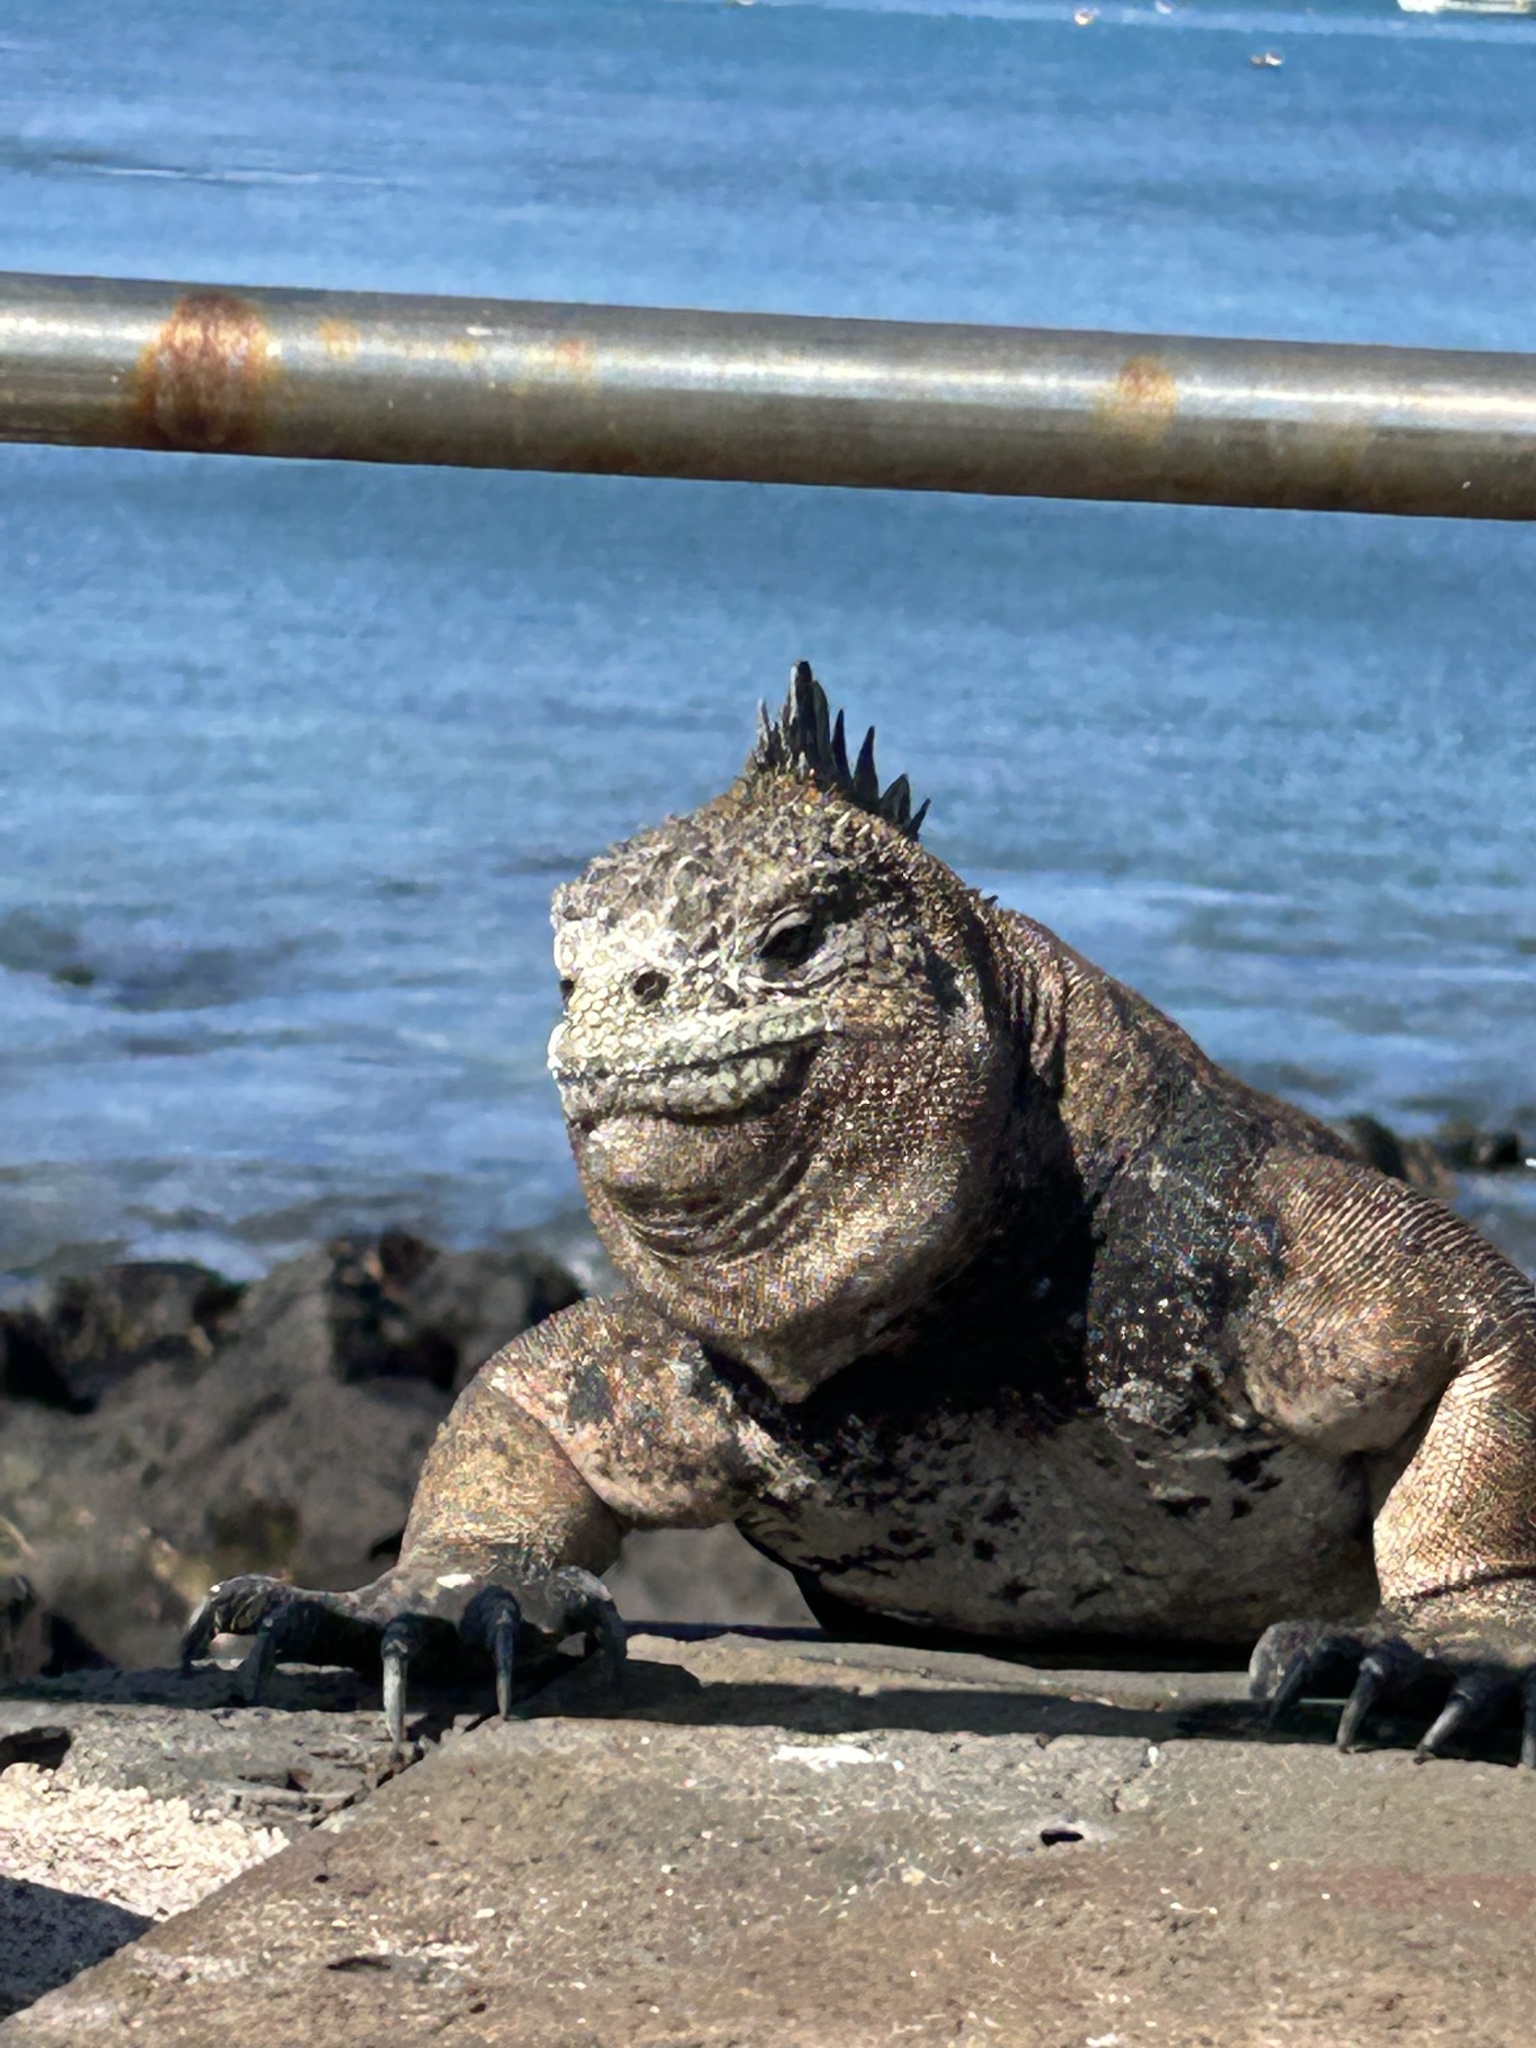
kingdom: Animalia
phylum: Chordata
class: Squamata
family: Iguanidae
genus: Amblyrhynchus
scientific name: Amblyrhynchus cristatus
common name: Marine iguana
